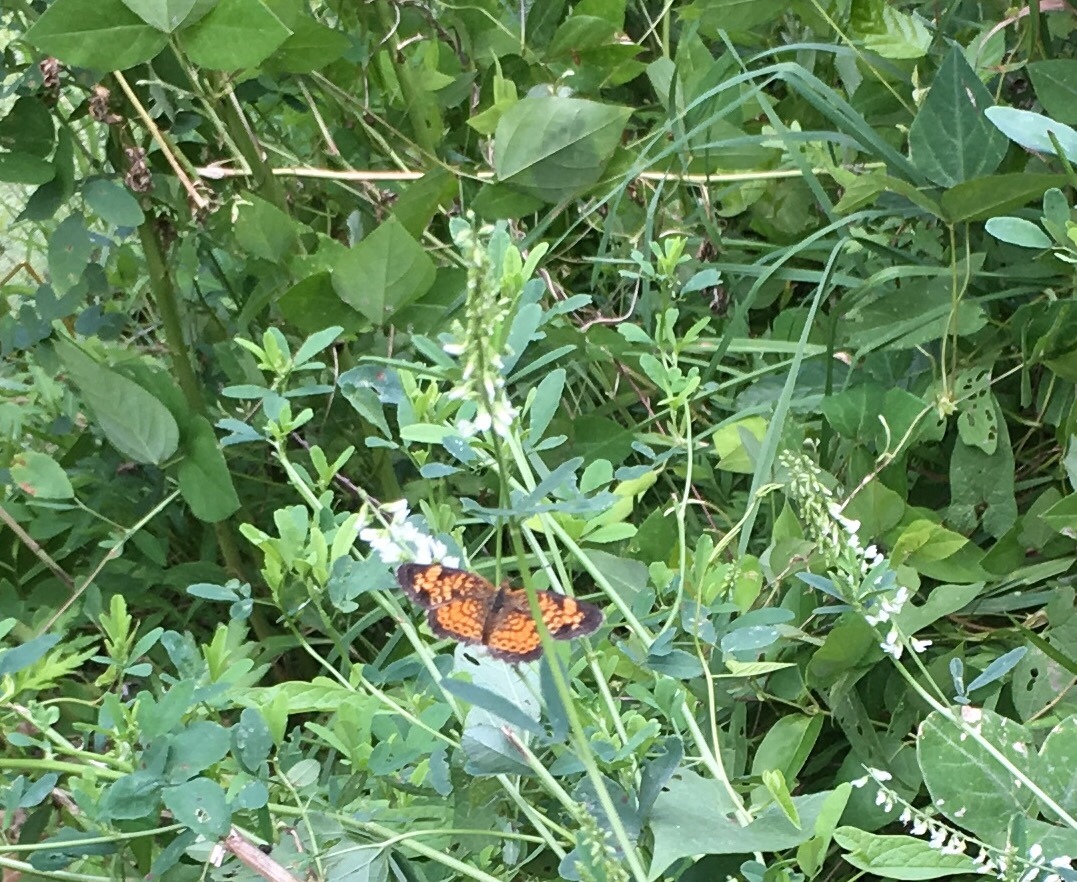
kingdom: Animalia
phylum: Arthropoda
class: Insecta
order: Lepidoptera
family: Nymphalidae
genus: Phyciodes
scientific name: Phyciodes tharos
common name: Pearl crescent
